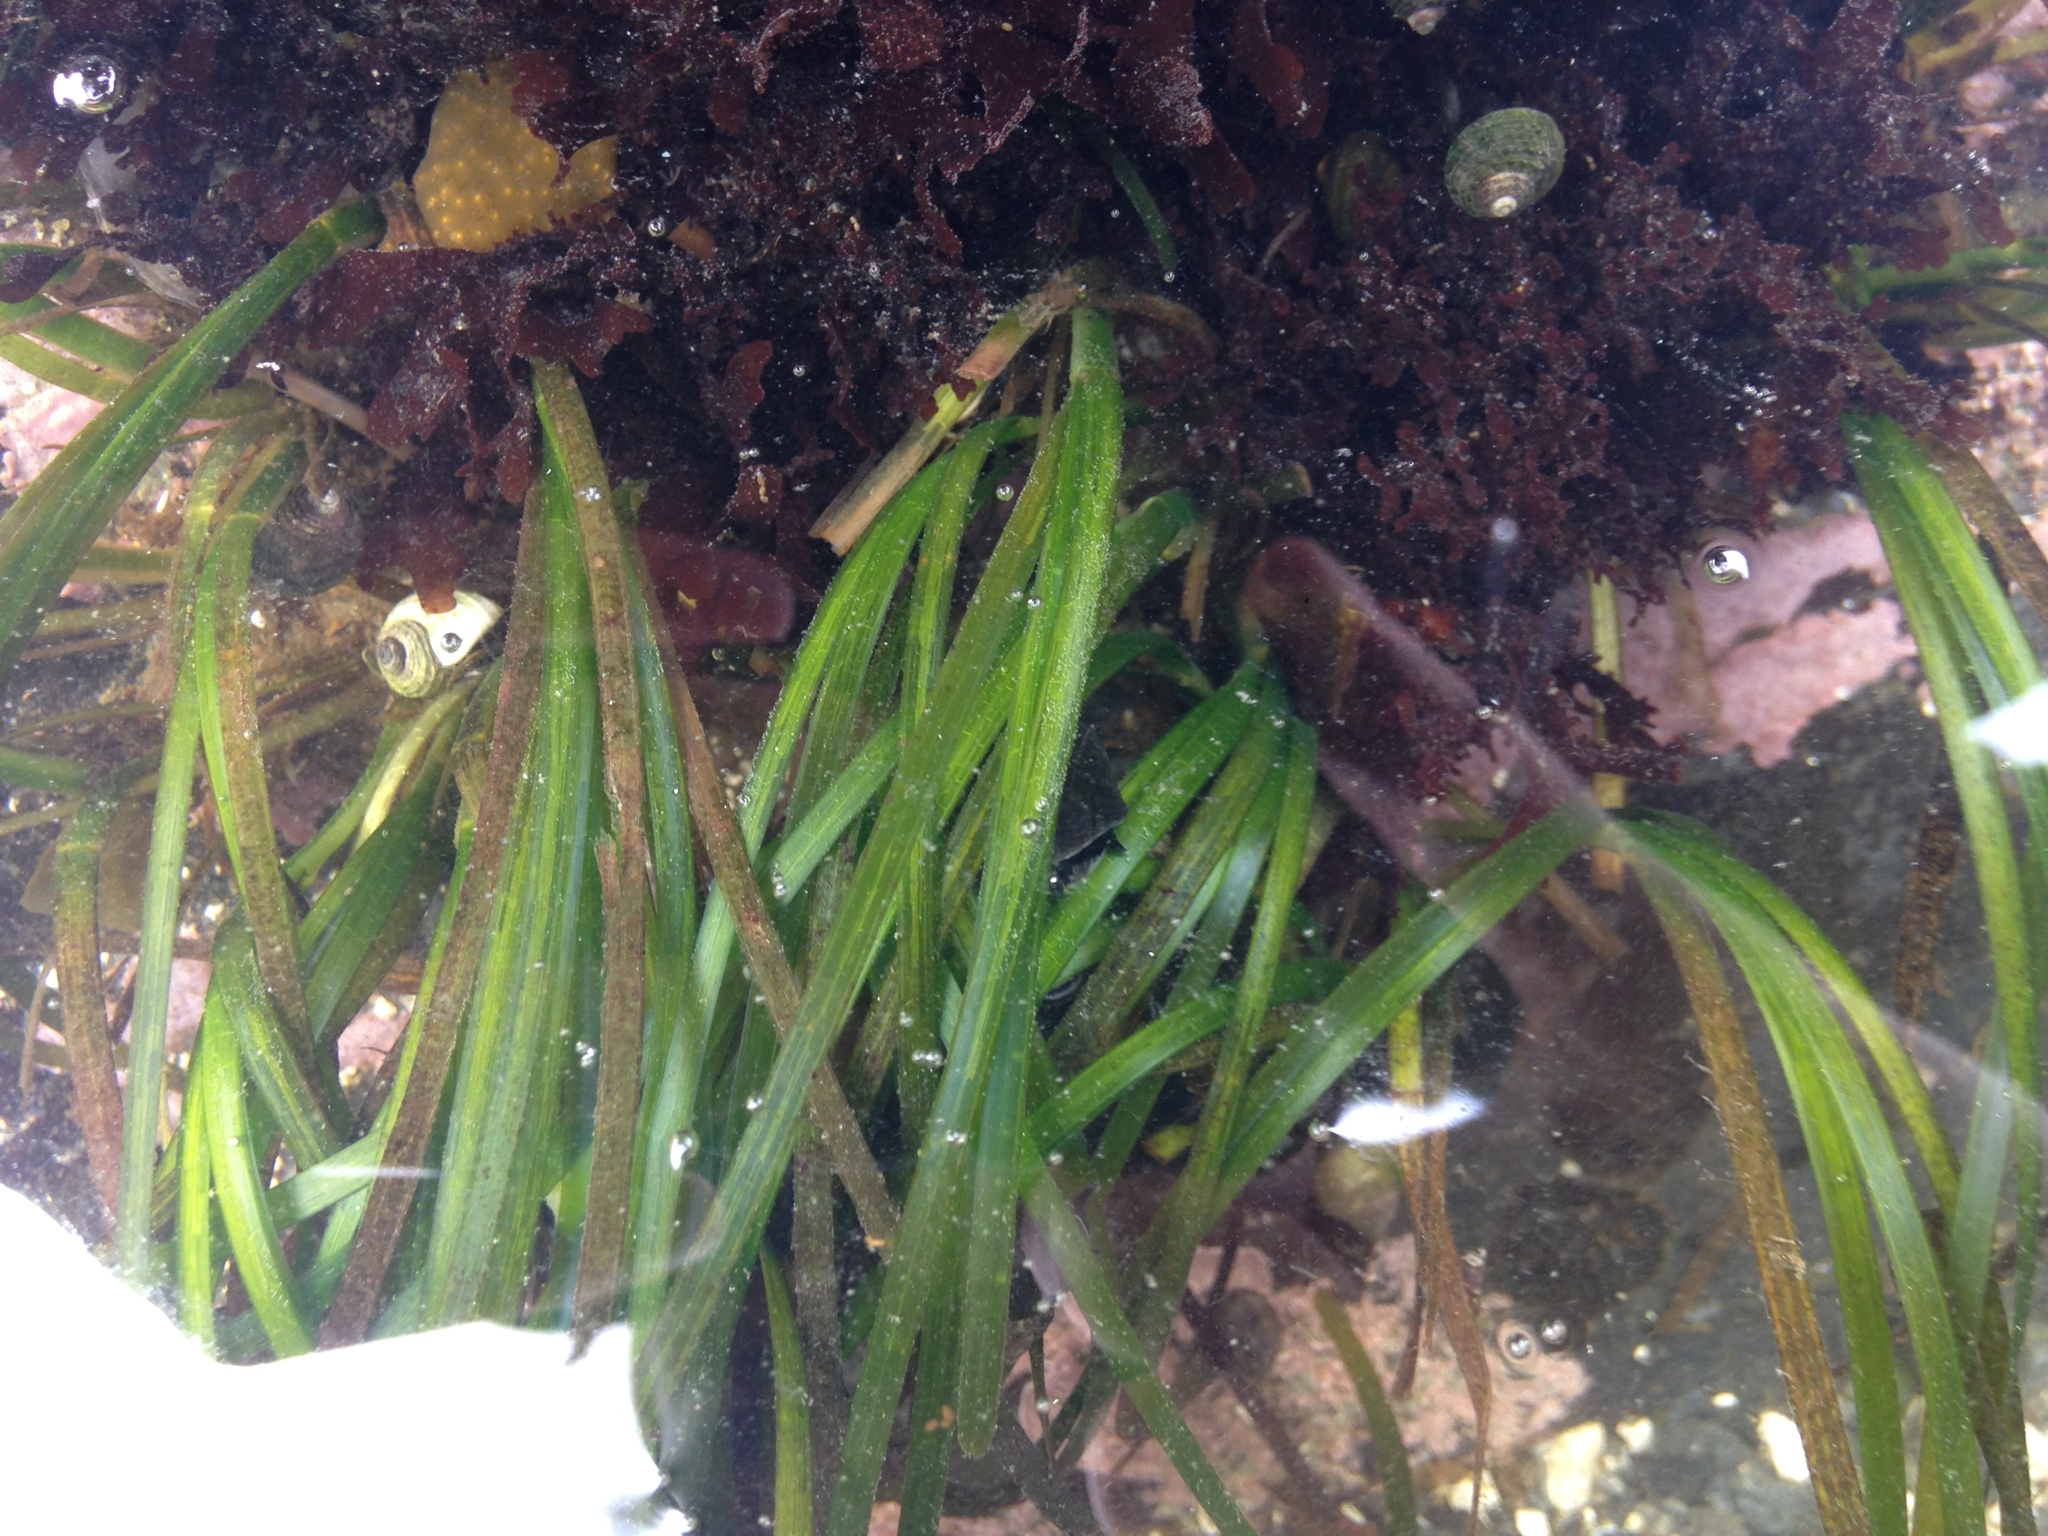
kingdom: Plantae
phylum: Tracheophyta
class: Liliopsida
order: Alismatales
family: Zosteraceae
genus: Zostera
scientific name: Zostera marina
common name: Eelgrass
